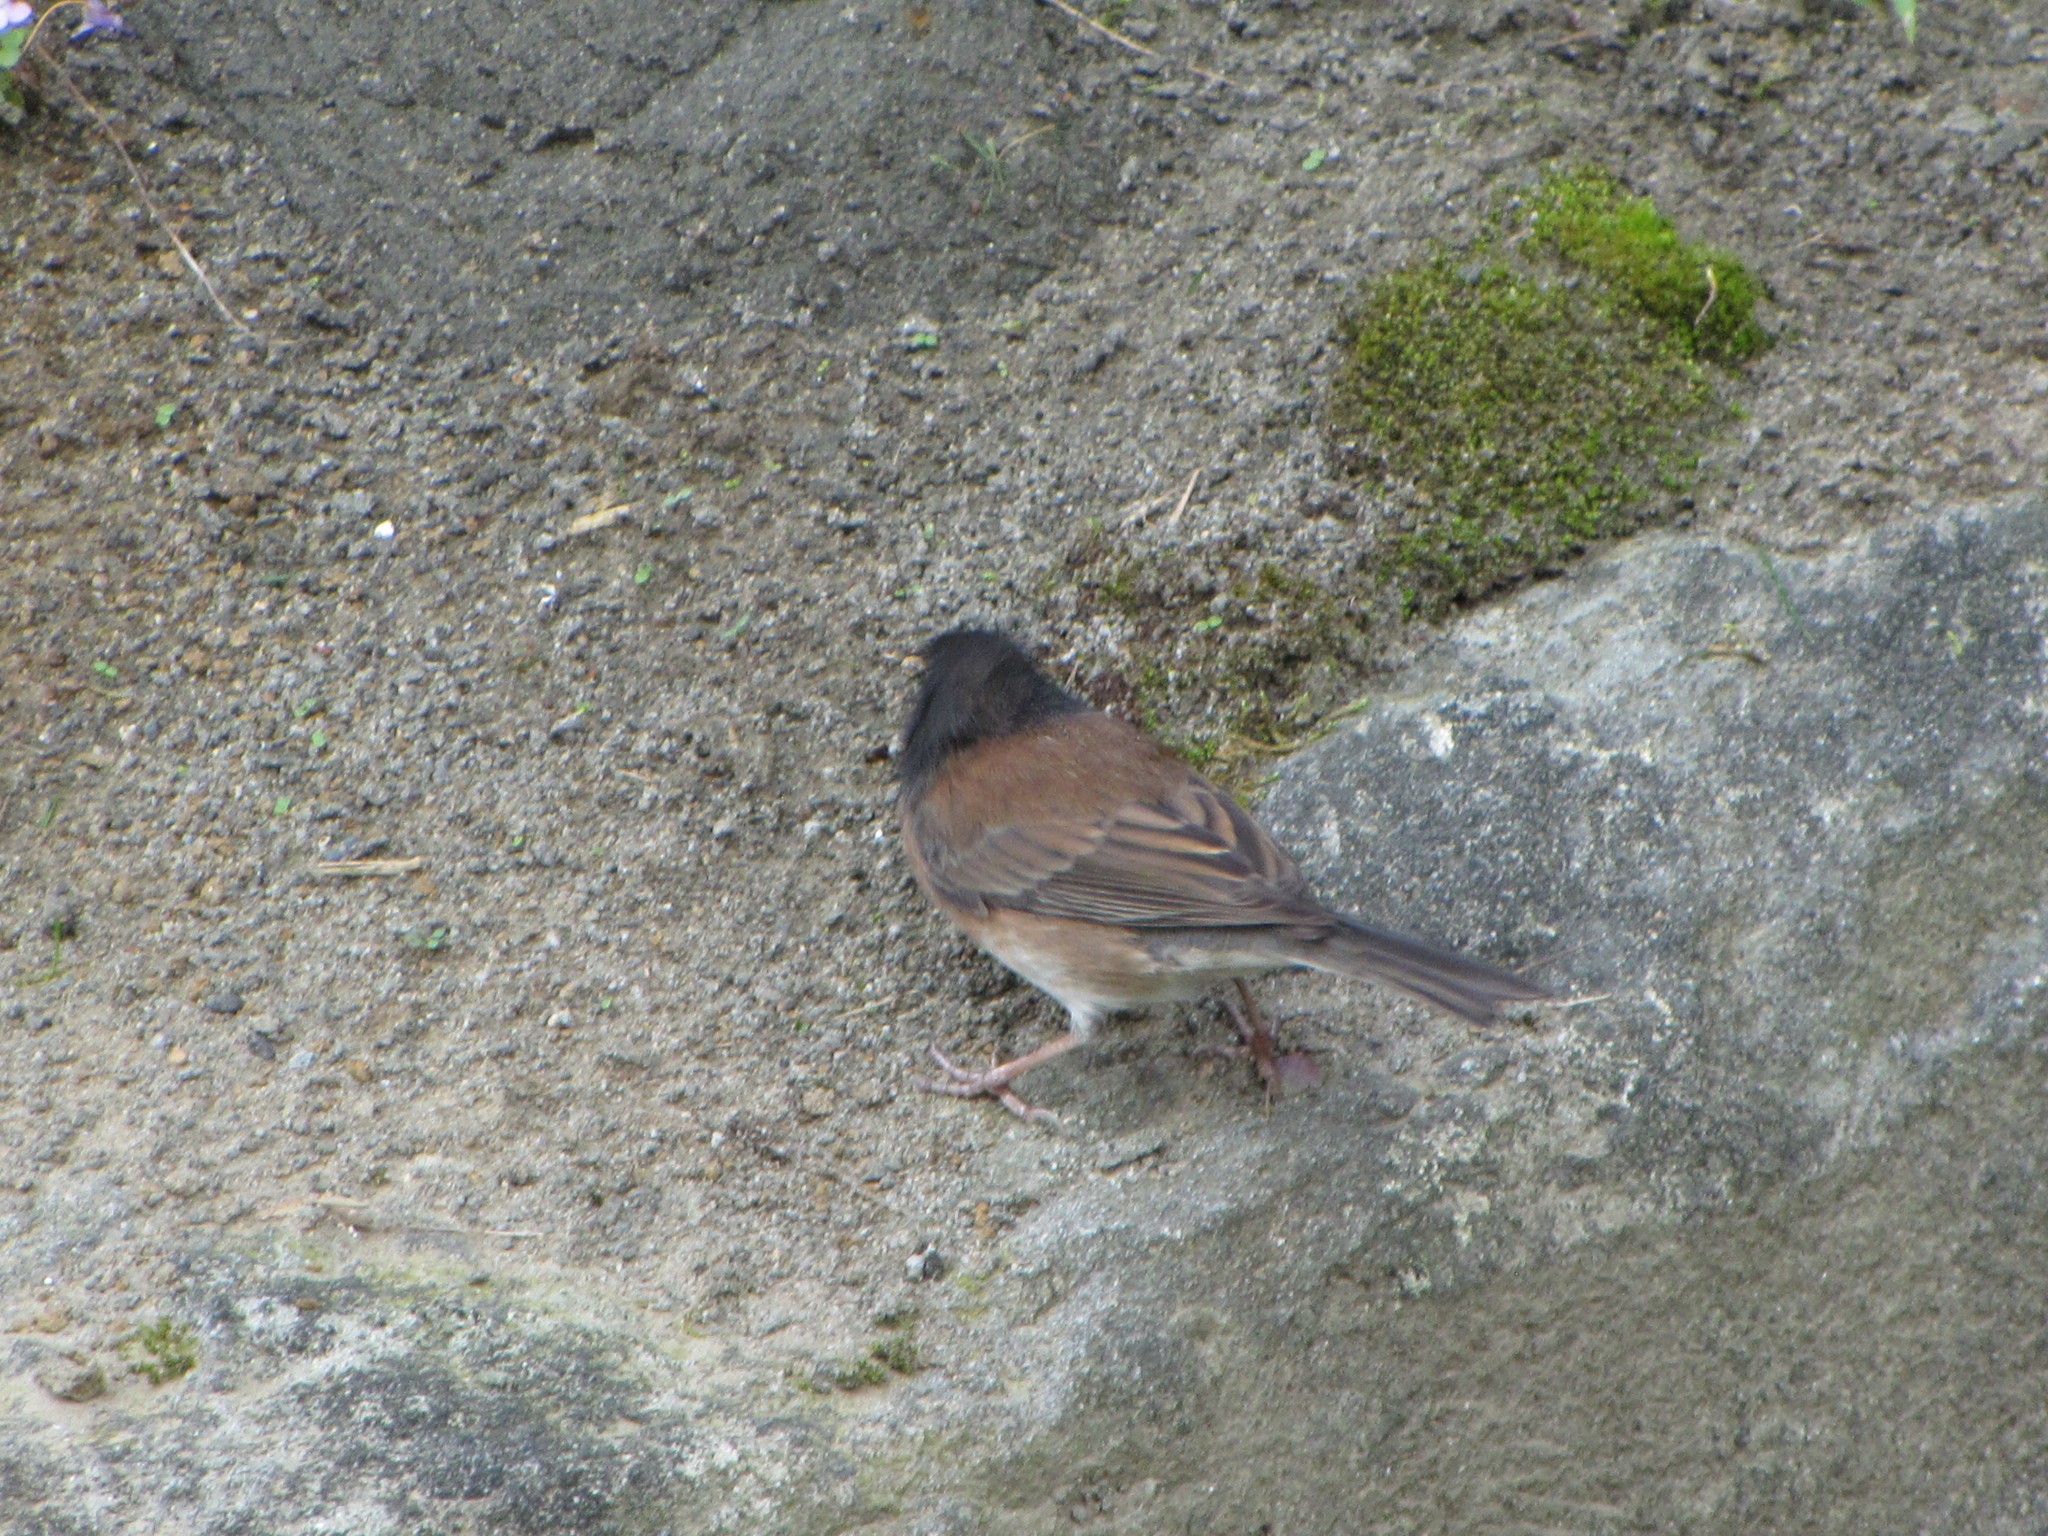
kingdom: Animalia
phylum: Chordata
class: Aves
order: Passeriformes
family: Passerellidae
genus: Junco
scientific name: Junco hyemalis
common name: Dark-eyed junco
